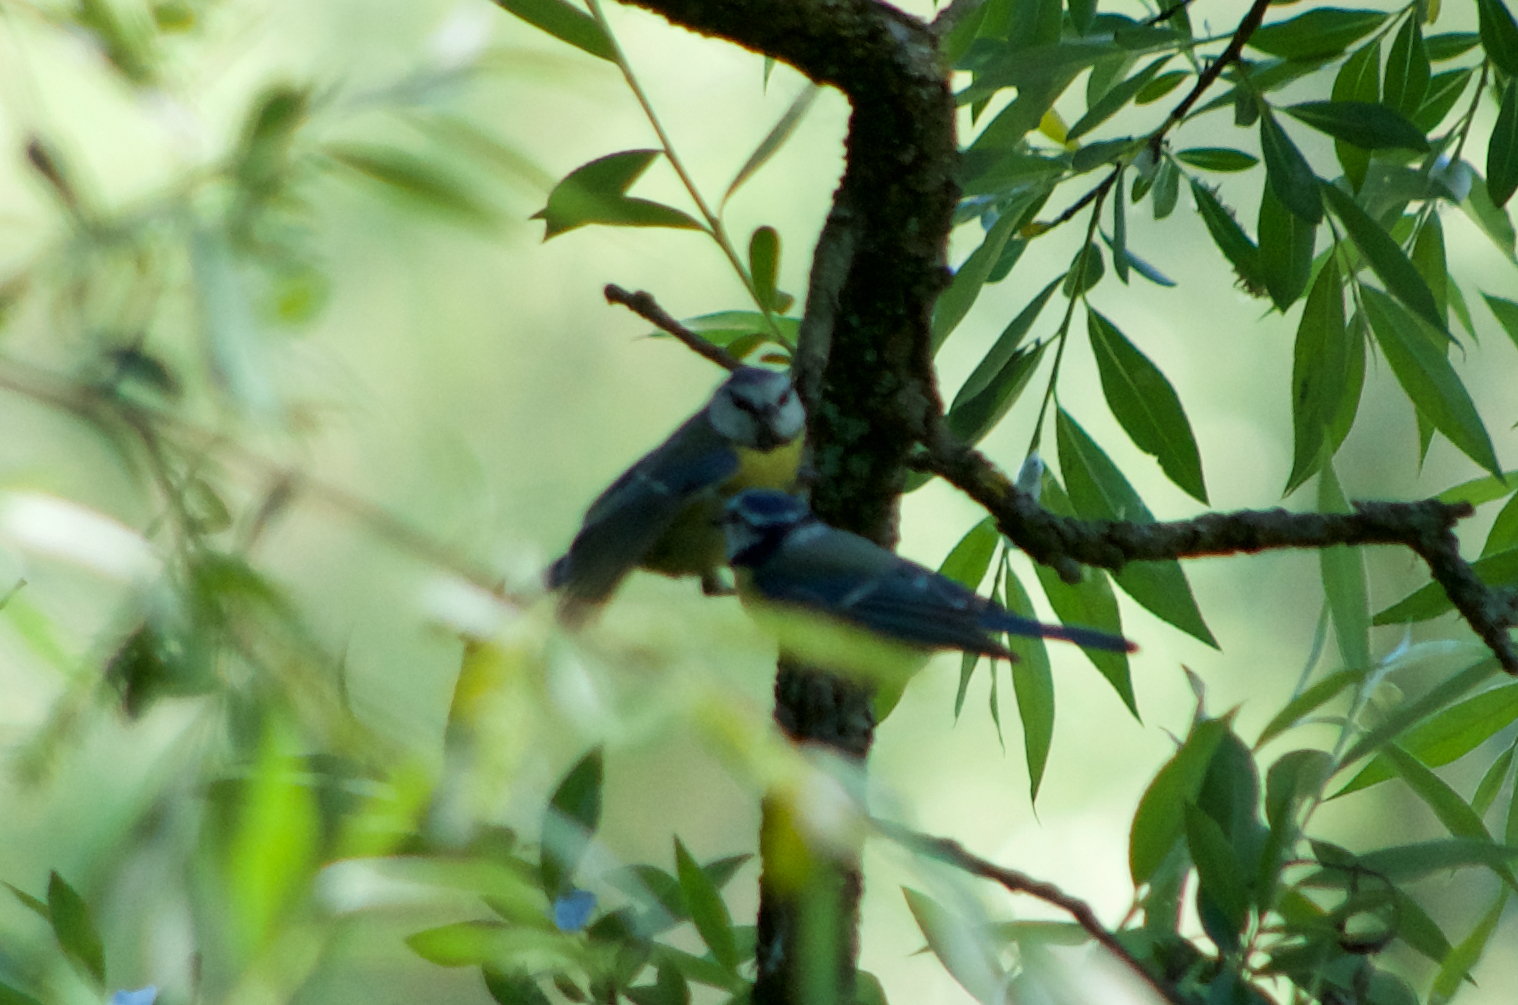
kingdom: Animalia
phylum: Chordata
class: Aves
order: Passeriformes
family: Paridae
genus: Cyanistes
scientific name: Cyanistes caeruleus
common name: Eurasian blue tit
